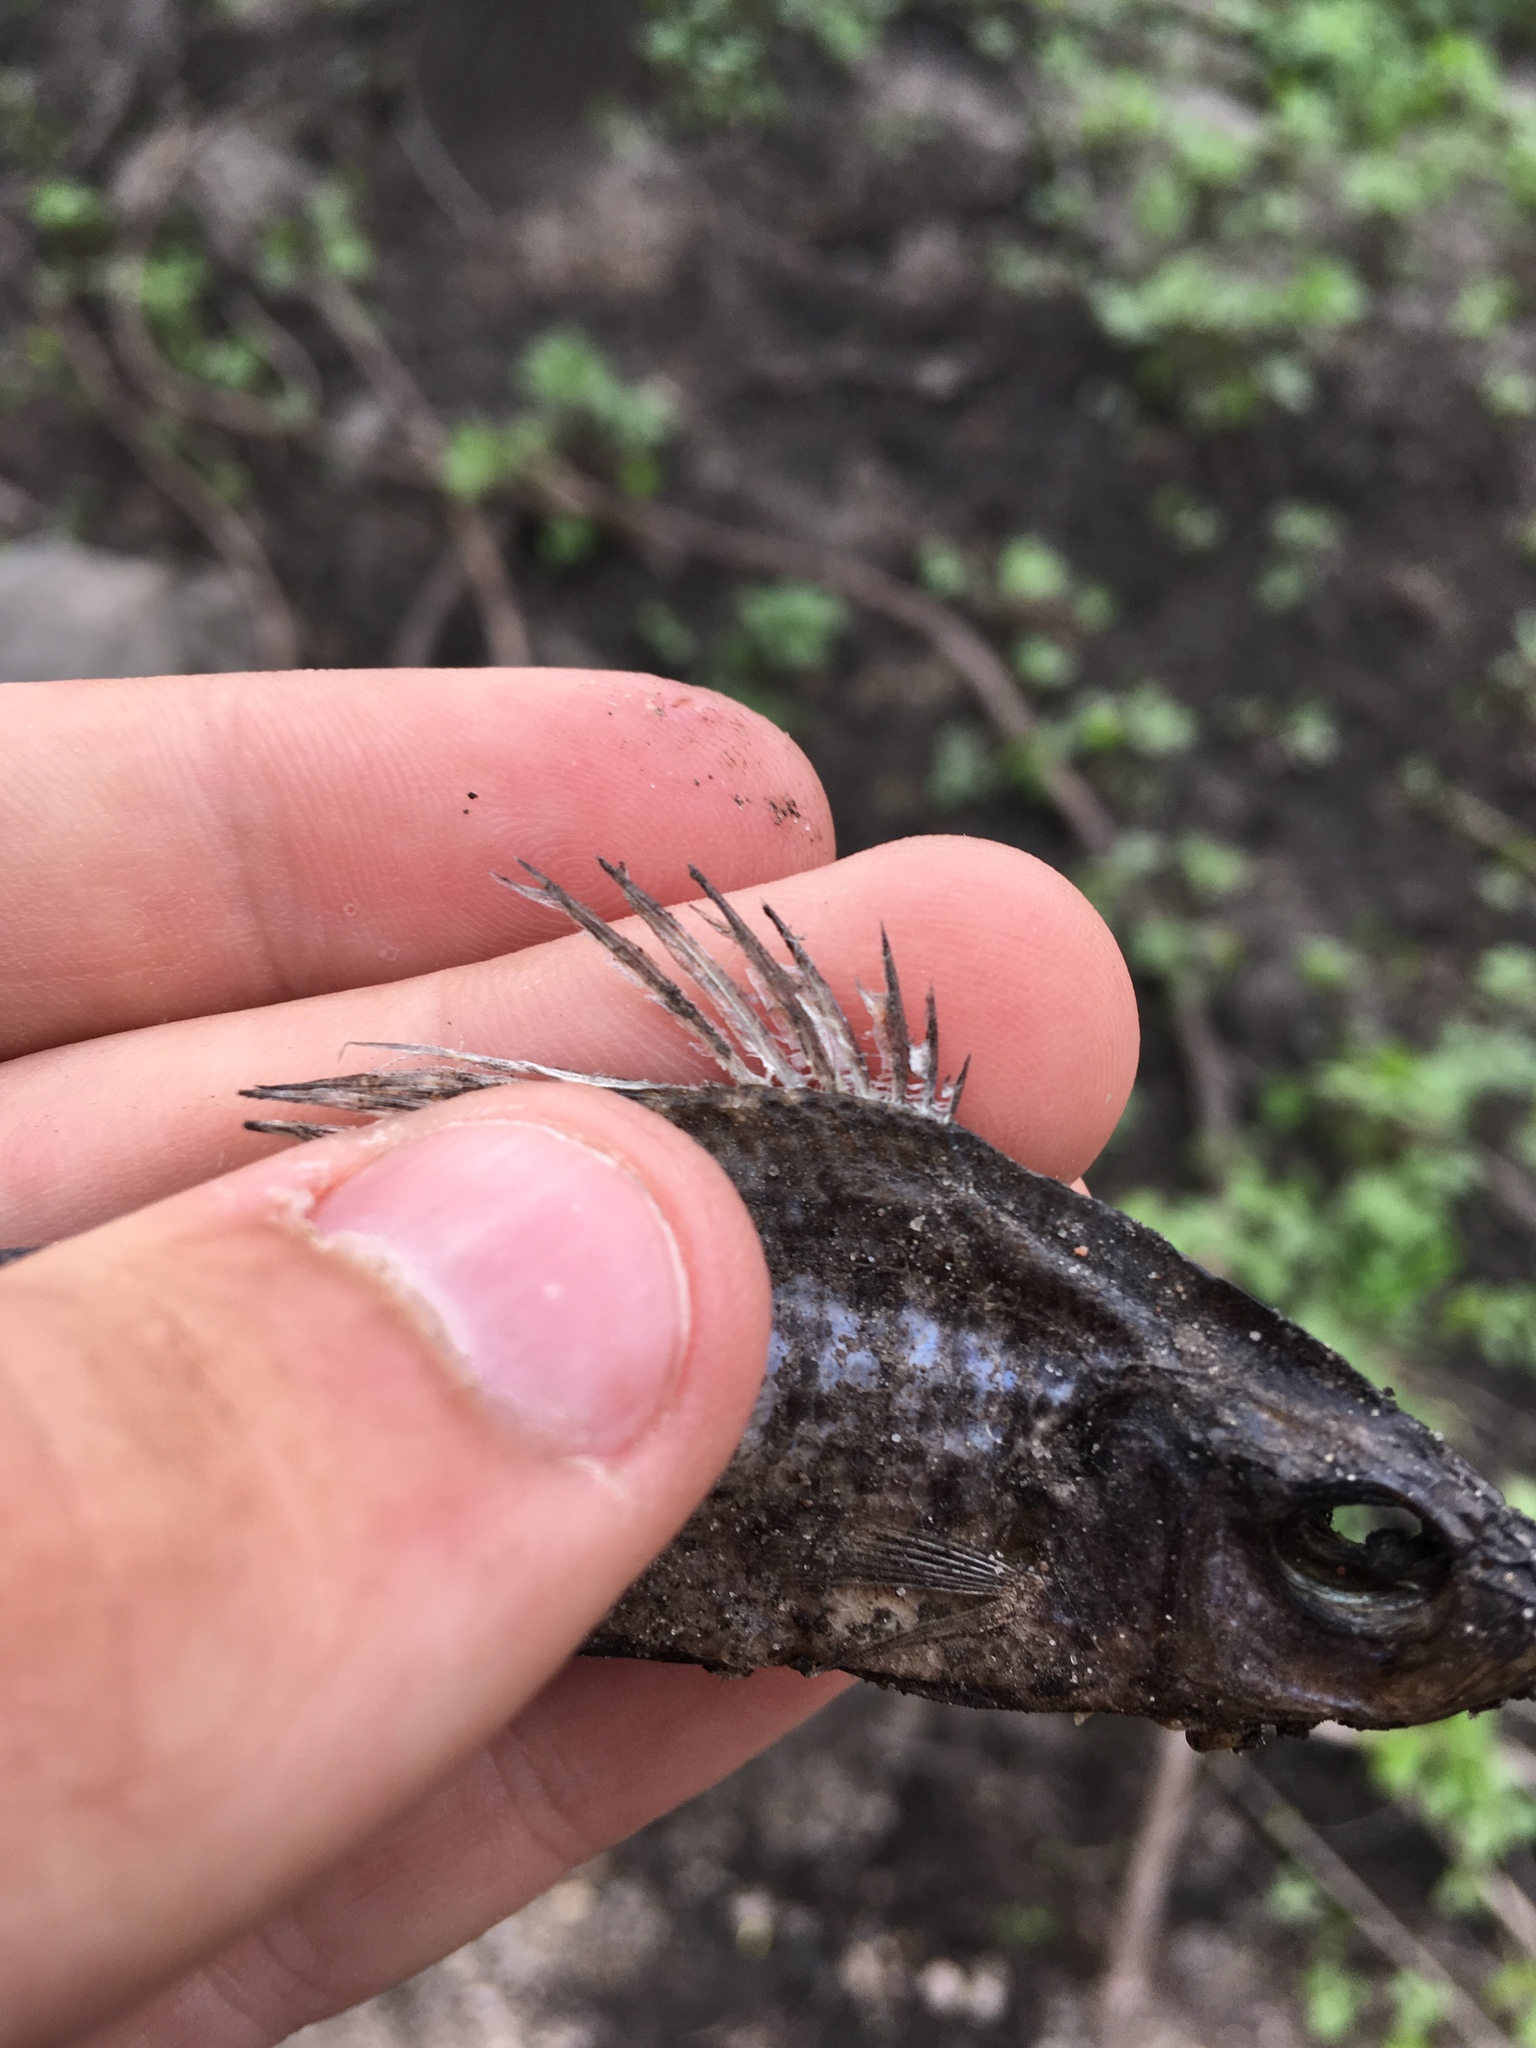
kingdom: Animalia
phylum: Chordata
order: Perciformes
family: Centrarchidae
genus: Pomoxis
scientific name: Pomoxis nigromaculatus
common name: Black crappie
